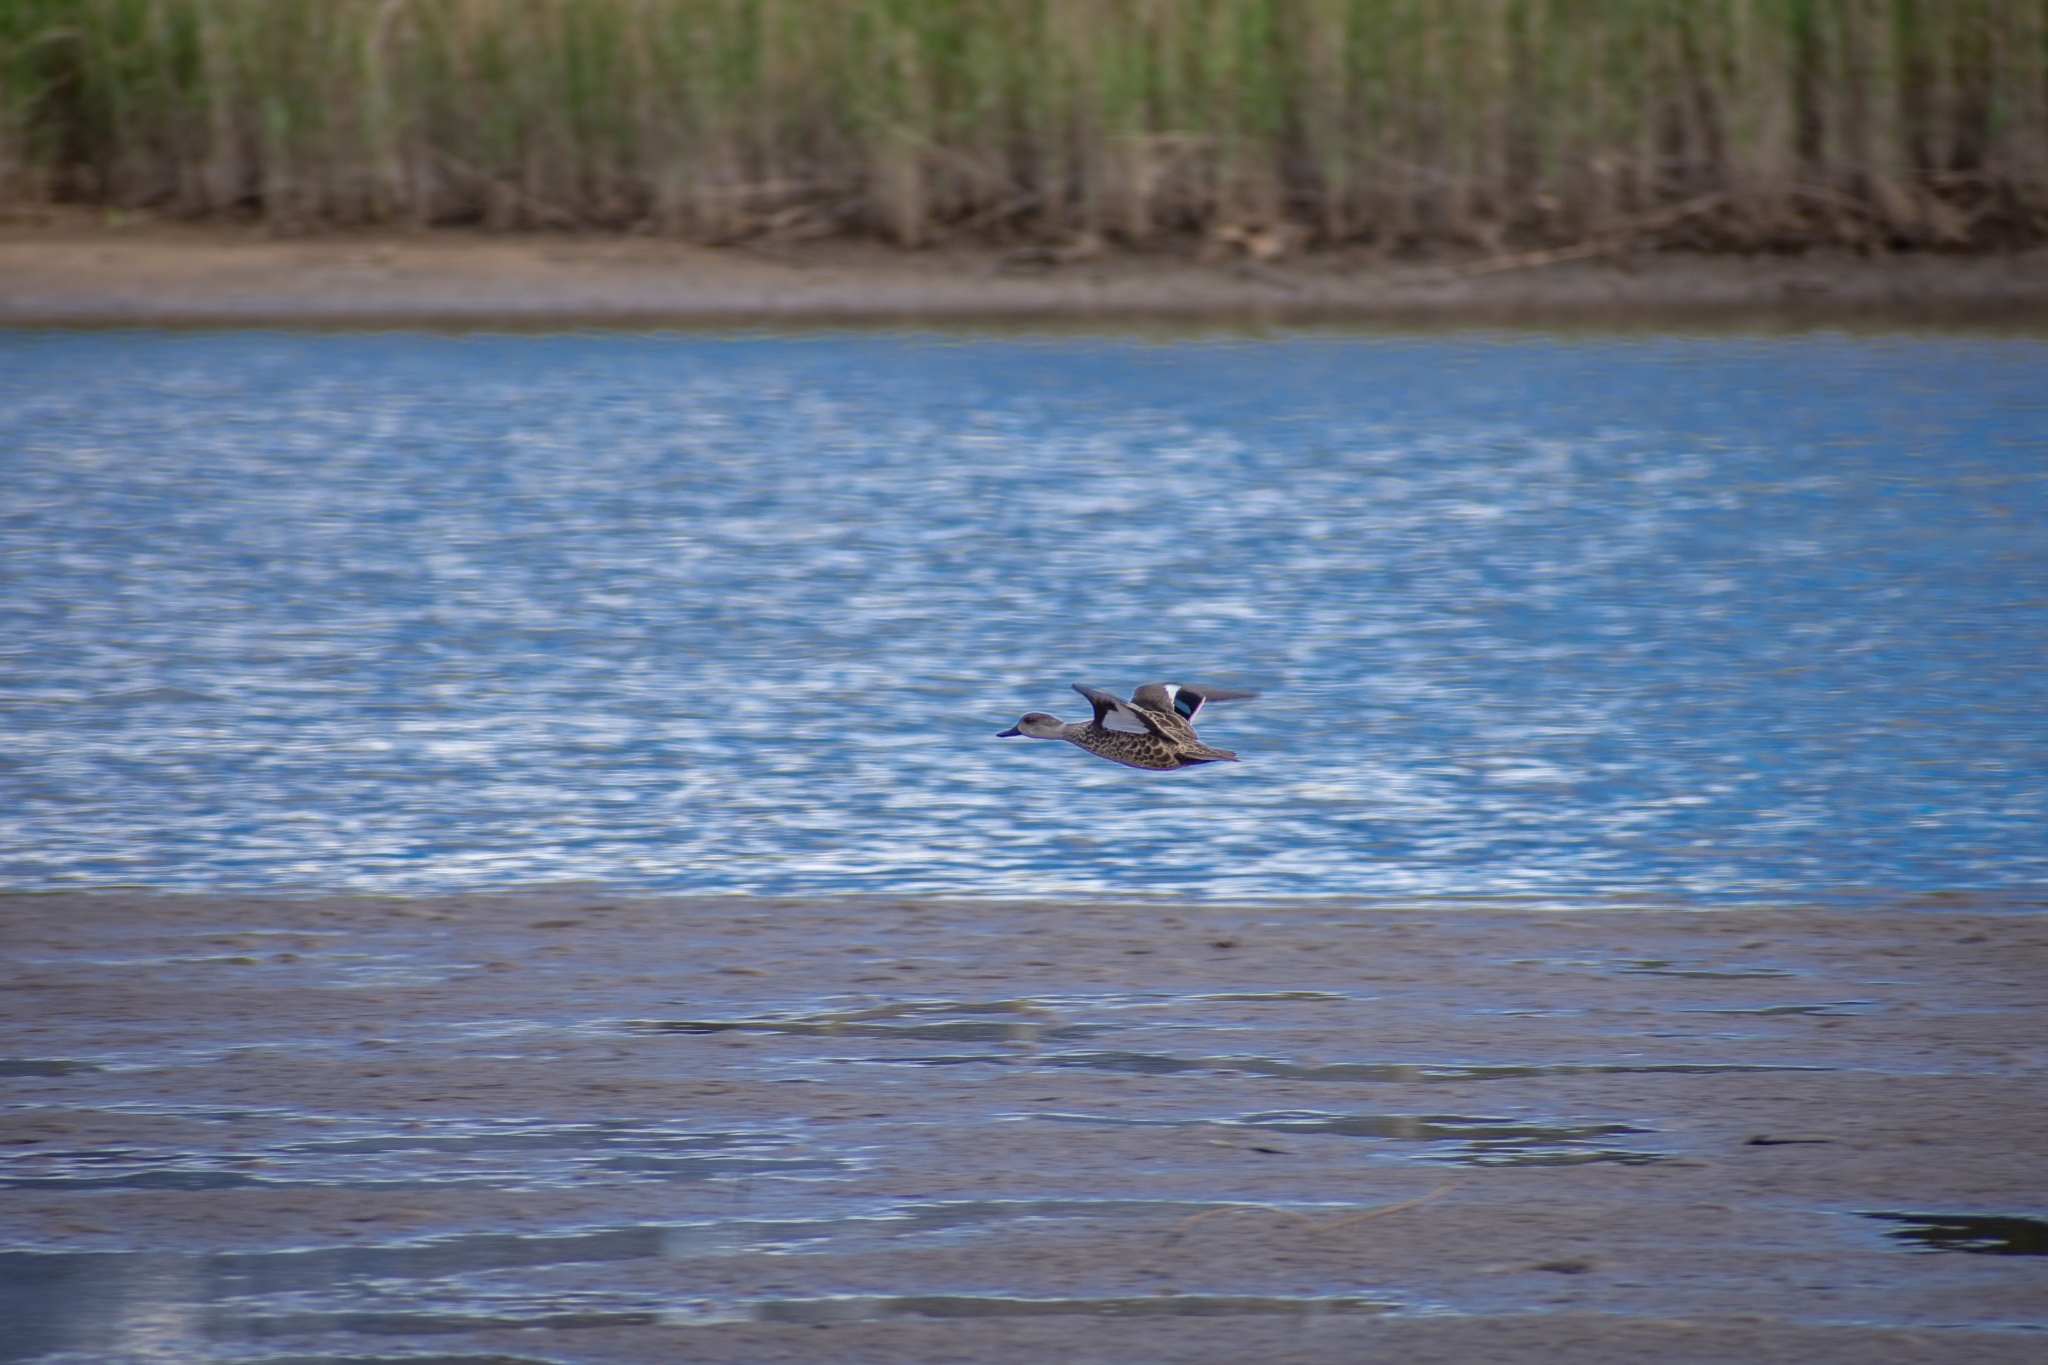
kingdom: Animalia
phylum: Chordata
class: Aves
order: Anseriformes
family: Anatidae
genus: Anas
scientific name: Anas gracilis
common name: Grey teal
